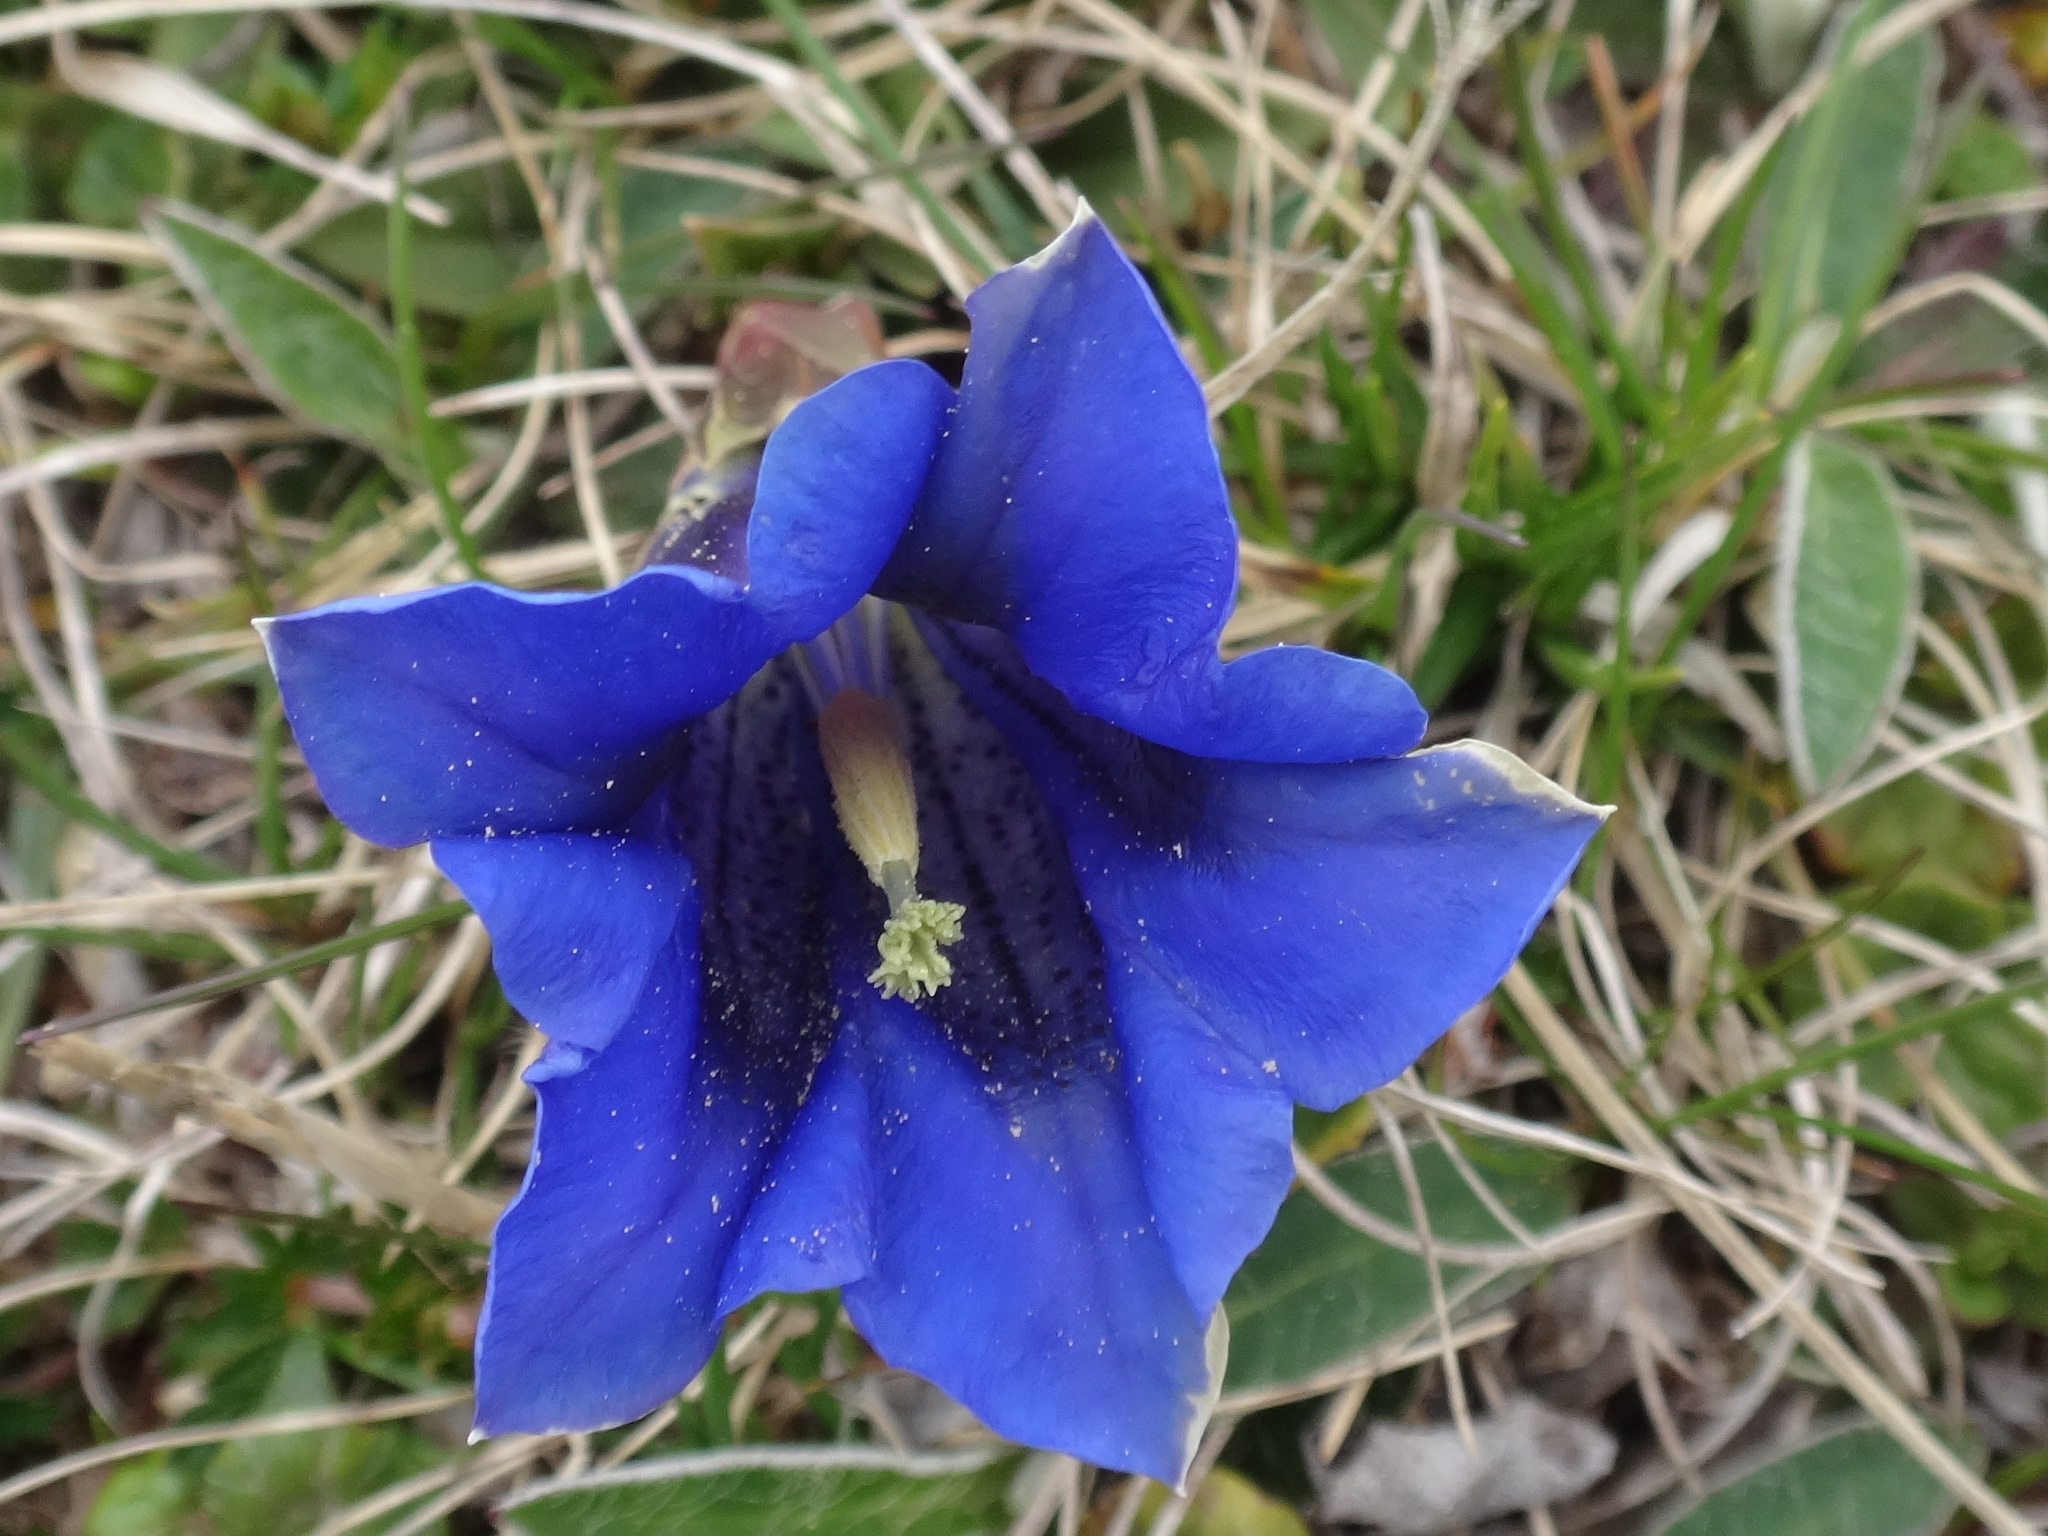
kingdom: Plantae
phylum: Tracheophyta
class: Magnoliopsida
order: Gentianales
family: Gentianaceae
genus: Gentiana
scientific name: Gentiana clusii
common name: Trumpet gentian
